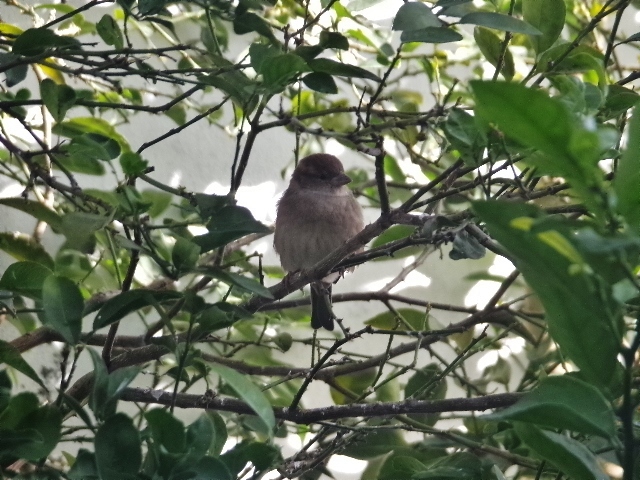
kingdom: Animalia
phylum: Chordata
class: Aves
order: Passeriformes
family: Passeridae
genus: Passer
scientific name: Passer domesticus
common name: House sparrow
